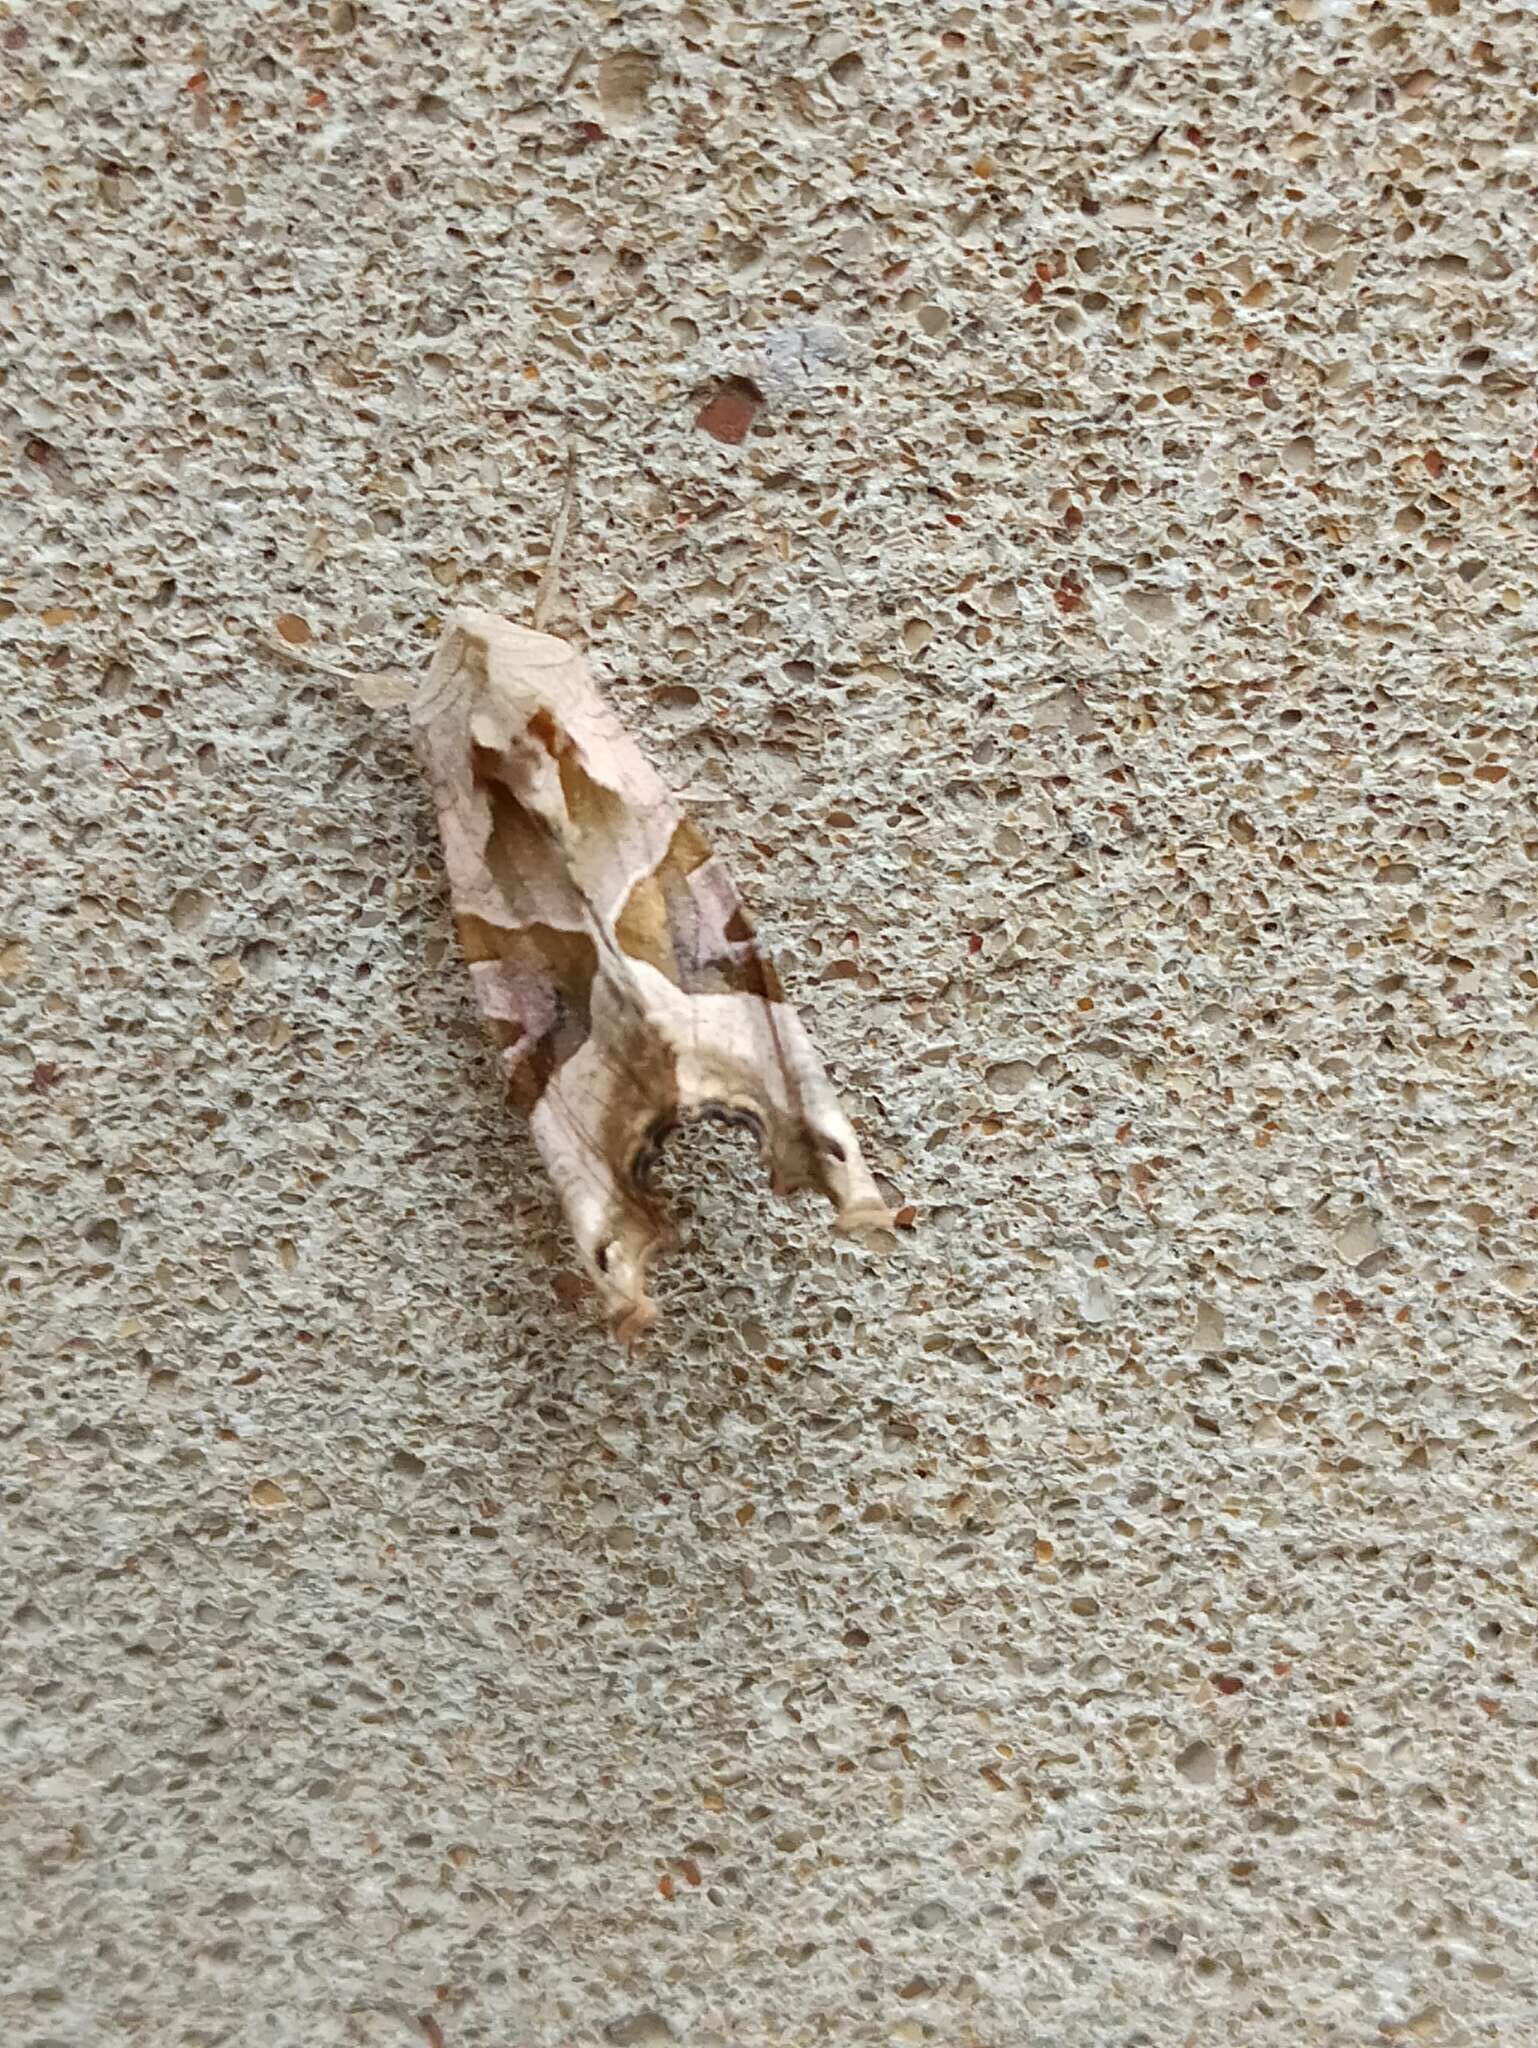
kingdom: Animalia
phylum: Arthropoda
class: Insecta
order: Lepidoptera
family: Noctuidae
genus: Phlogophora
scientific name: Phlogophora meticulosa
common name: Angle shades
